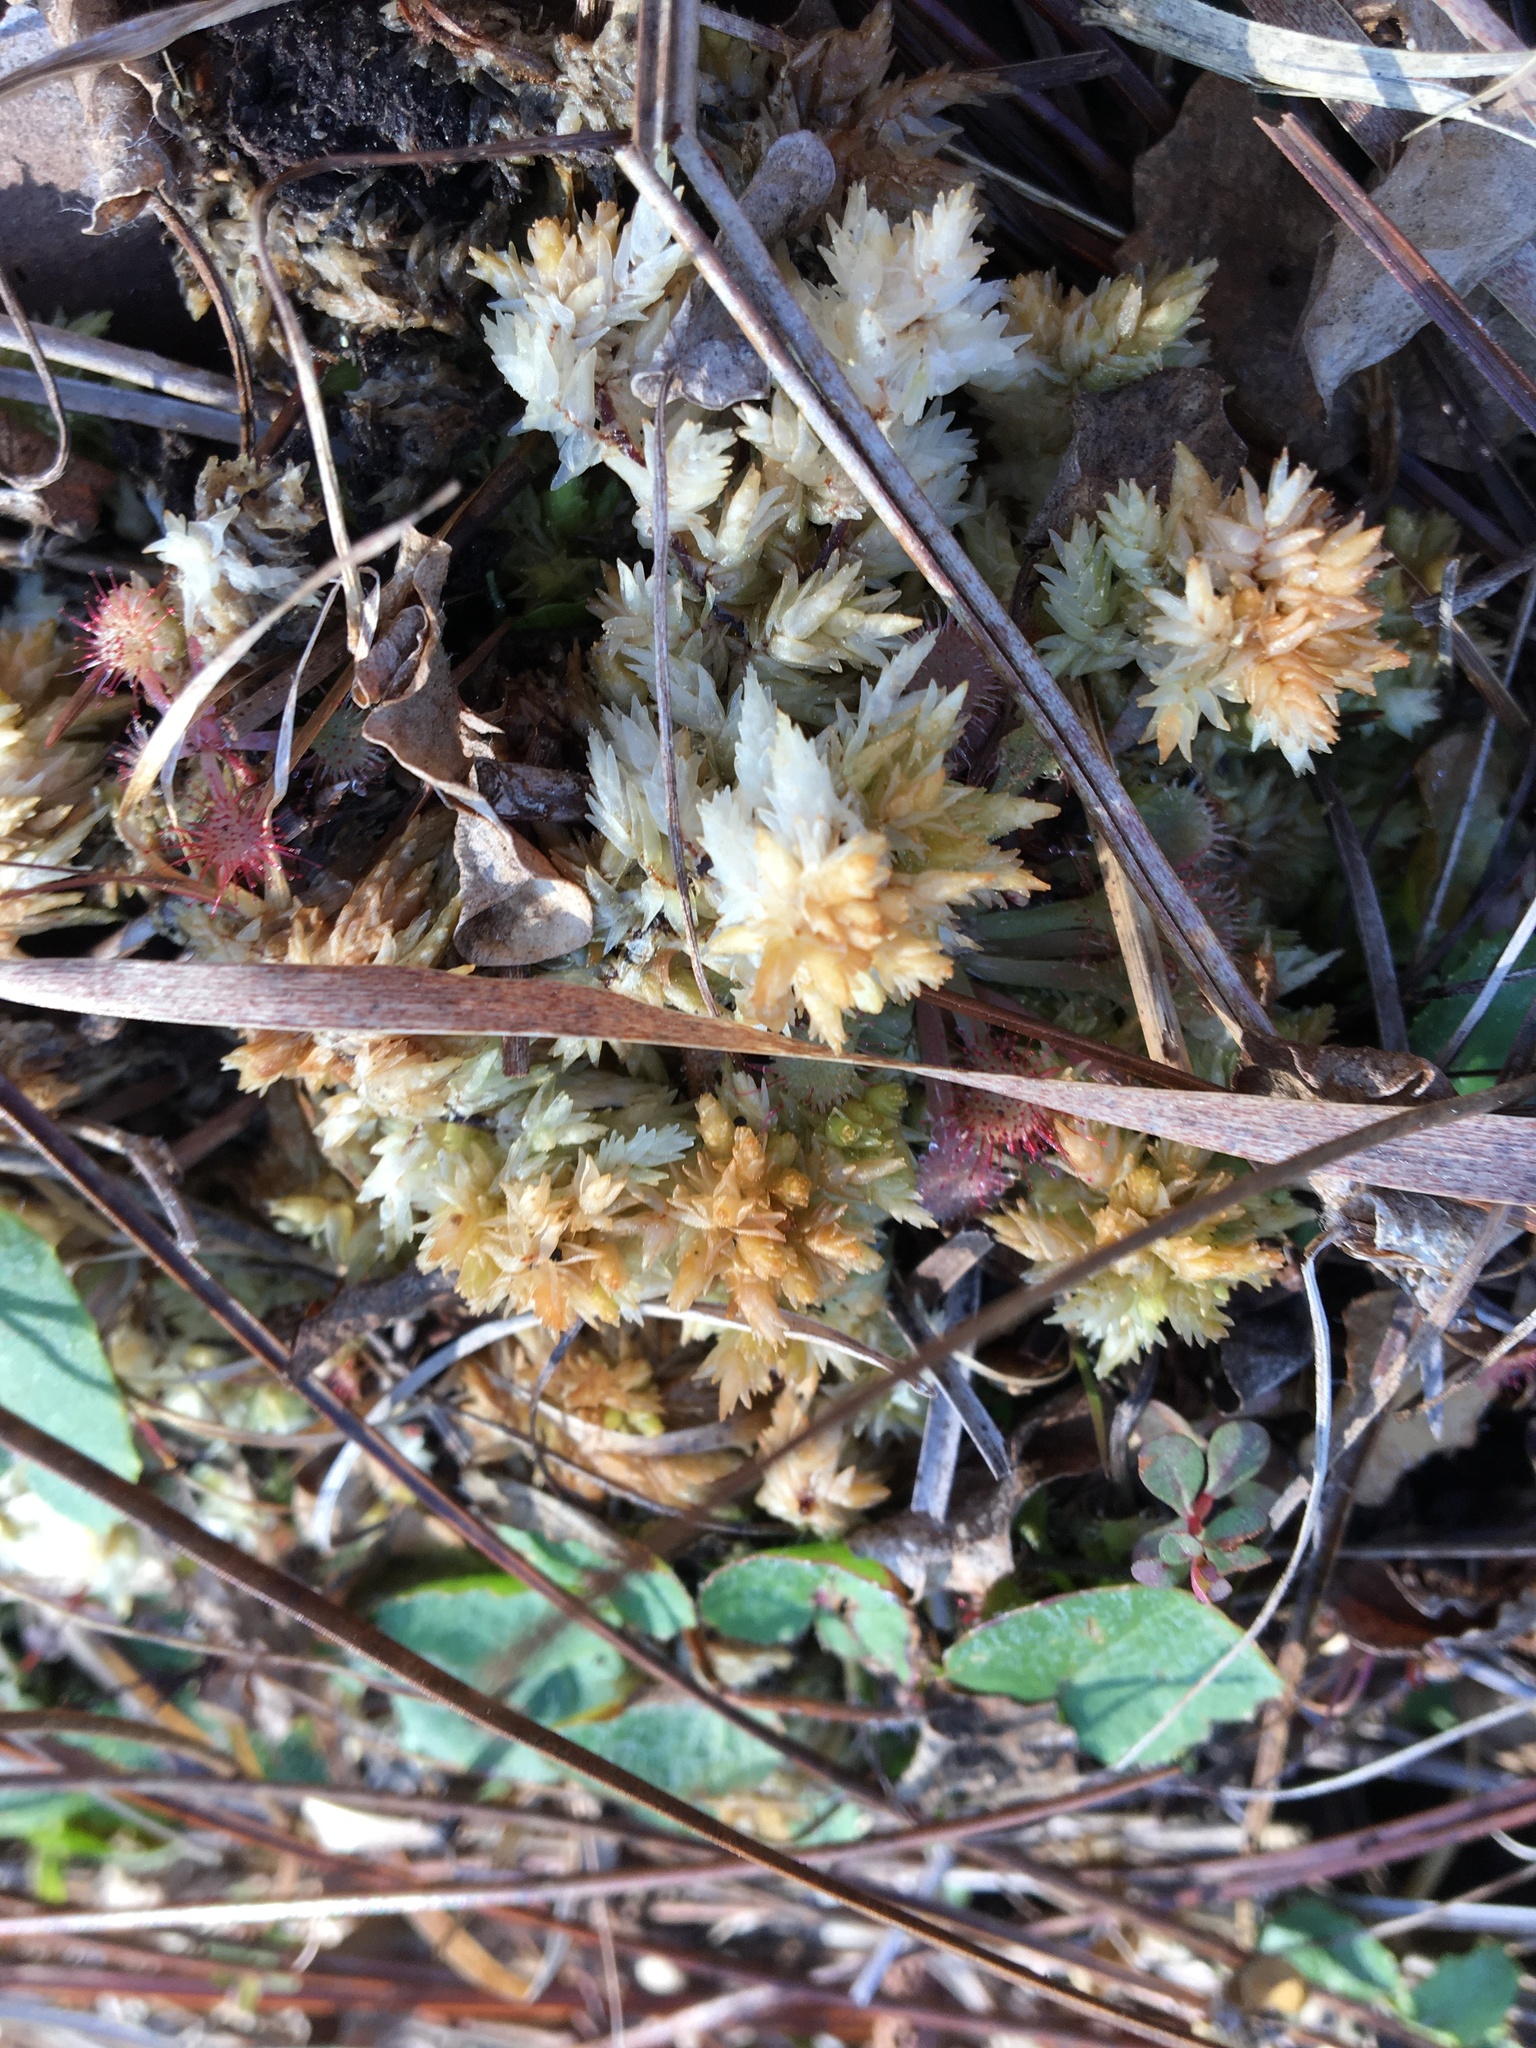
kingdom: Plantae
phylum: Bryophyta
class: Sphagnopsida
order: Sphagnales
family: Sphagnaceae
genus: Sphagnum
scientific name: Sphagnum perichaetiale
